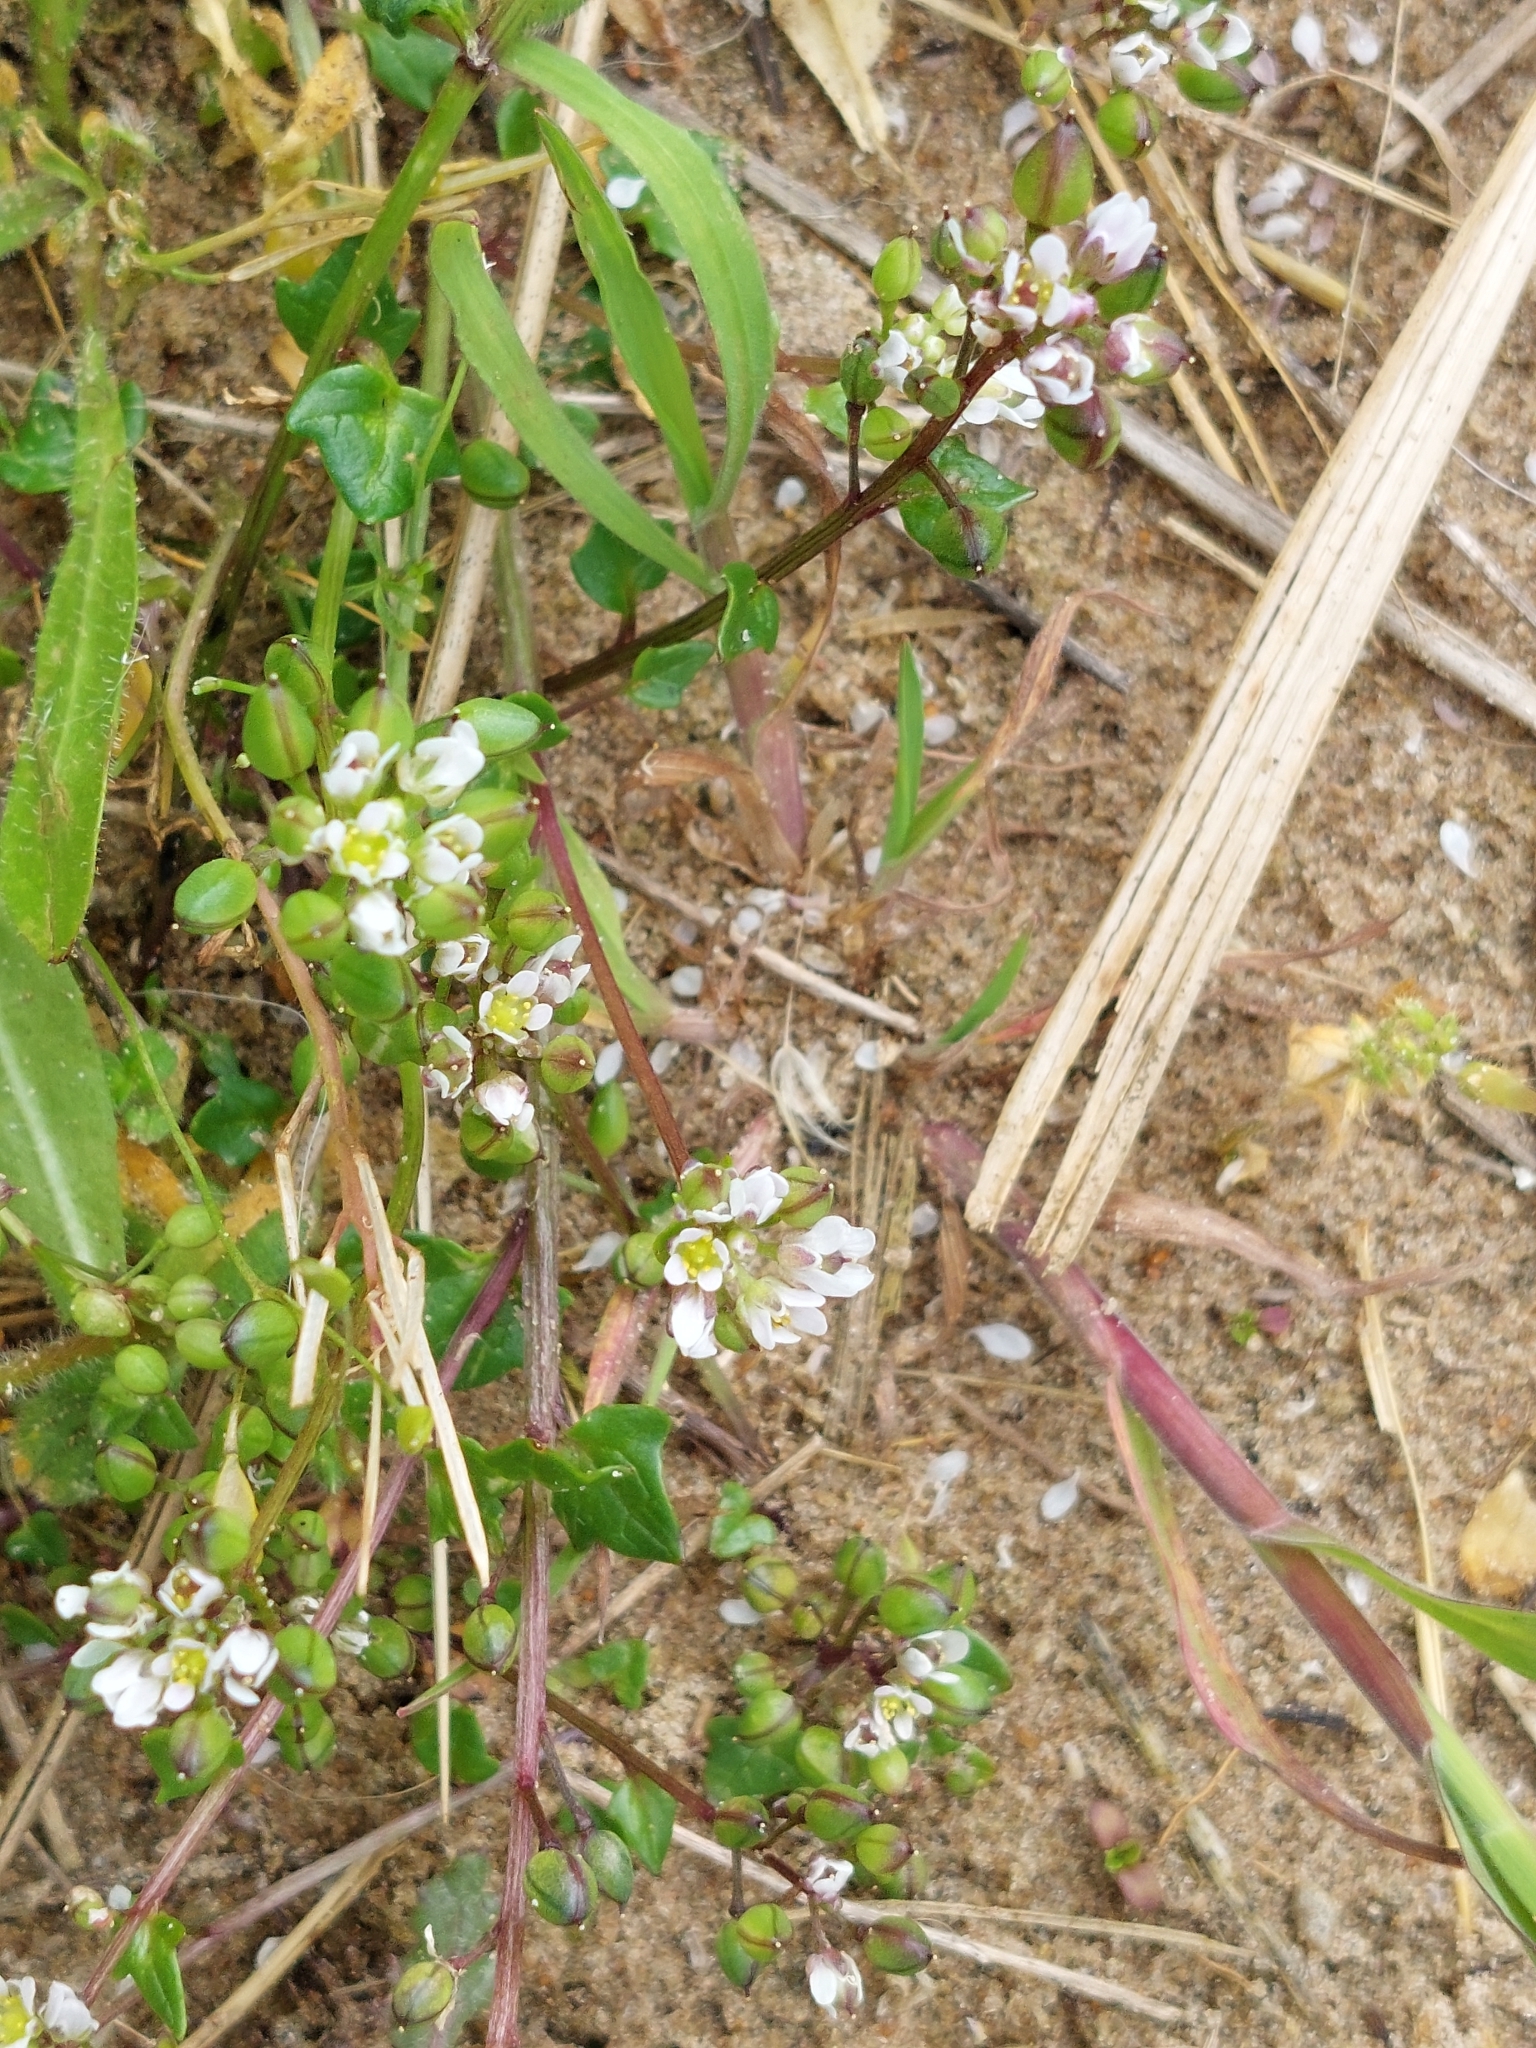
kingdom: Plantae
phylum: Tracheophyta
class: Magnoliopsida
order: Brassicales
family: Brassicaceae
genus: Cochlearia
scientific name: Cochlearia danica
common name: Early scurvygrass
